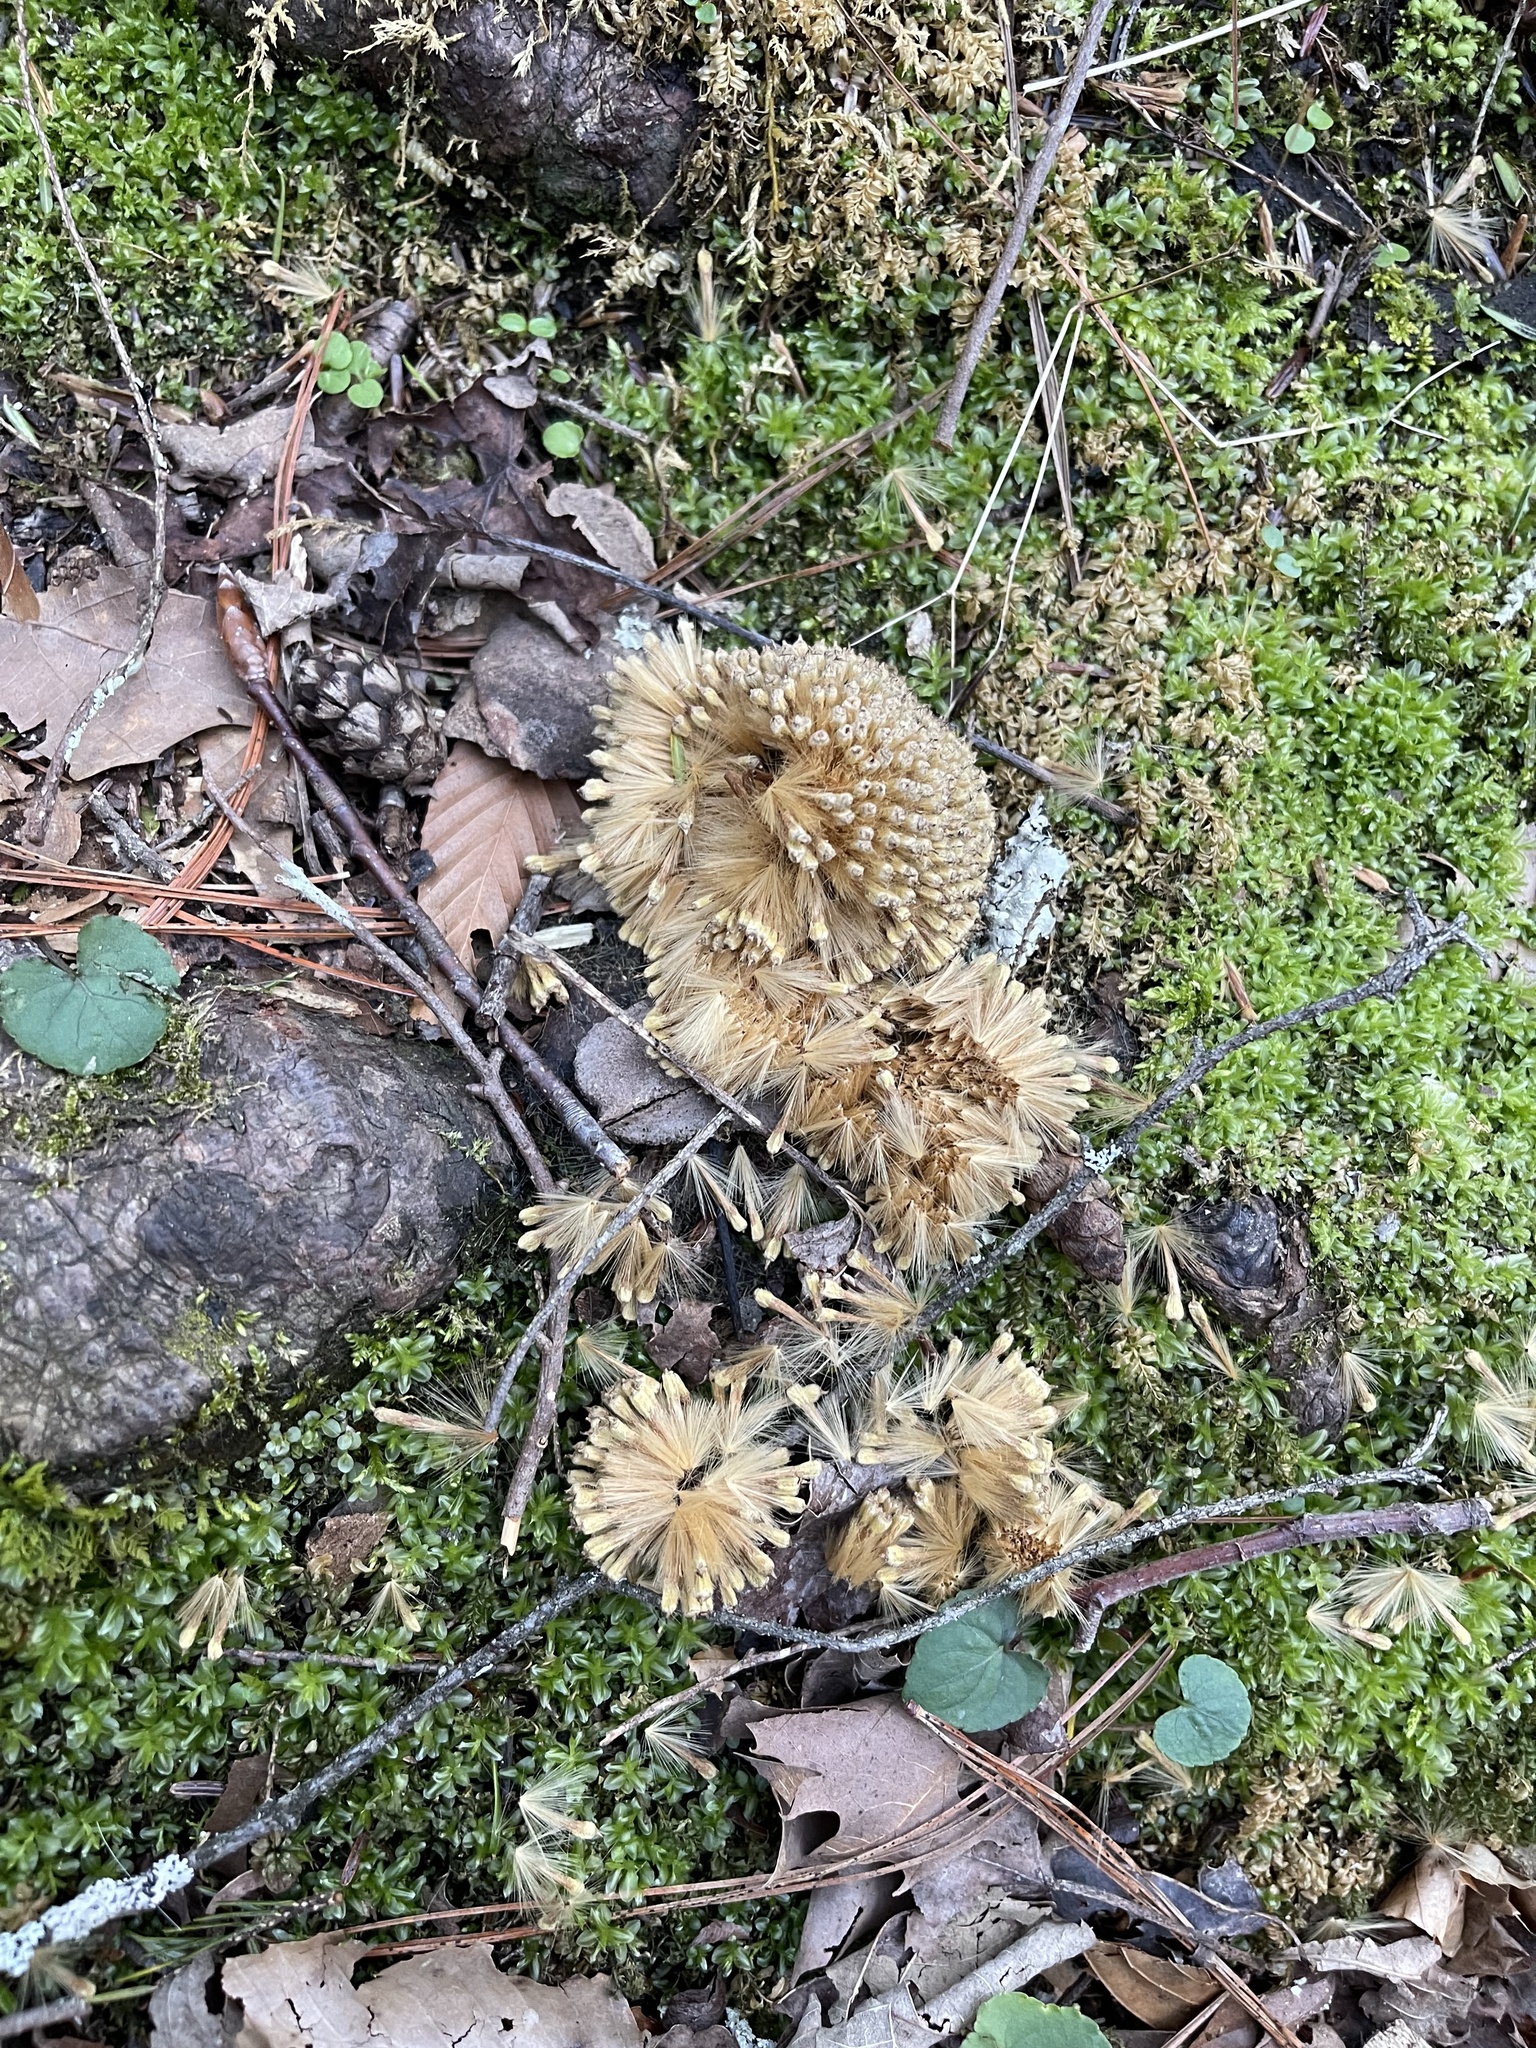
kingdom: Plantae
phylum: Tracheophyta
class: Magnoliopsida
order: Proteales
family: Platanaceae
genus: Platanus
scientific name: Platanus occidentalis
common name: American sycamore
